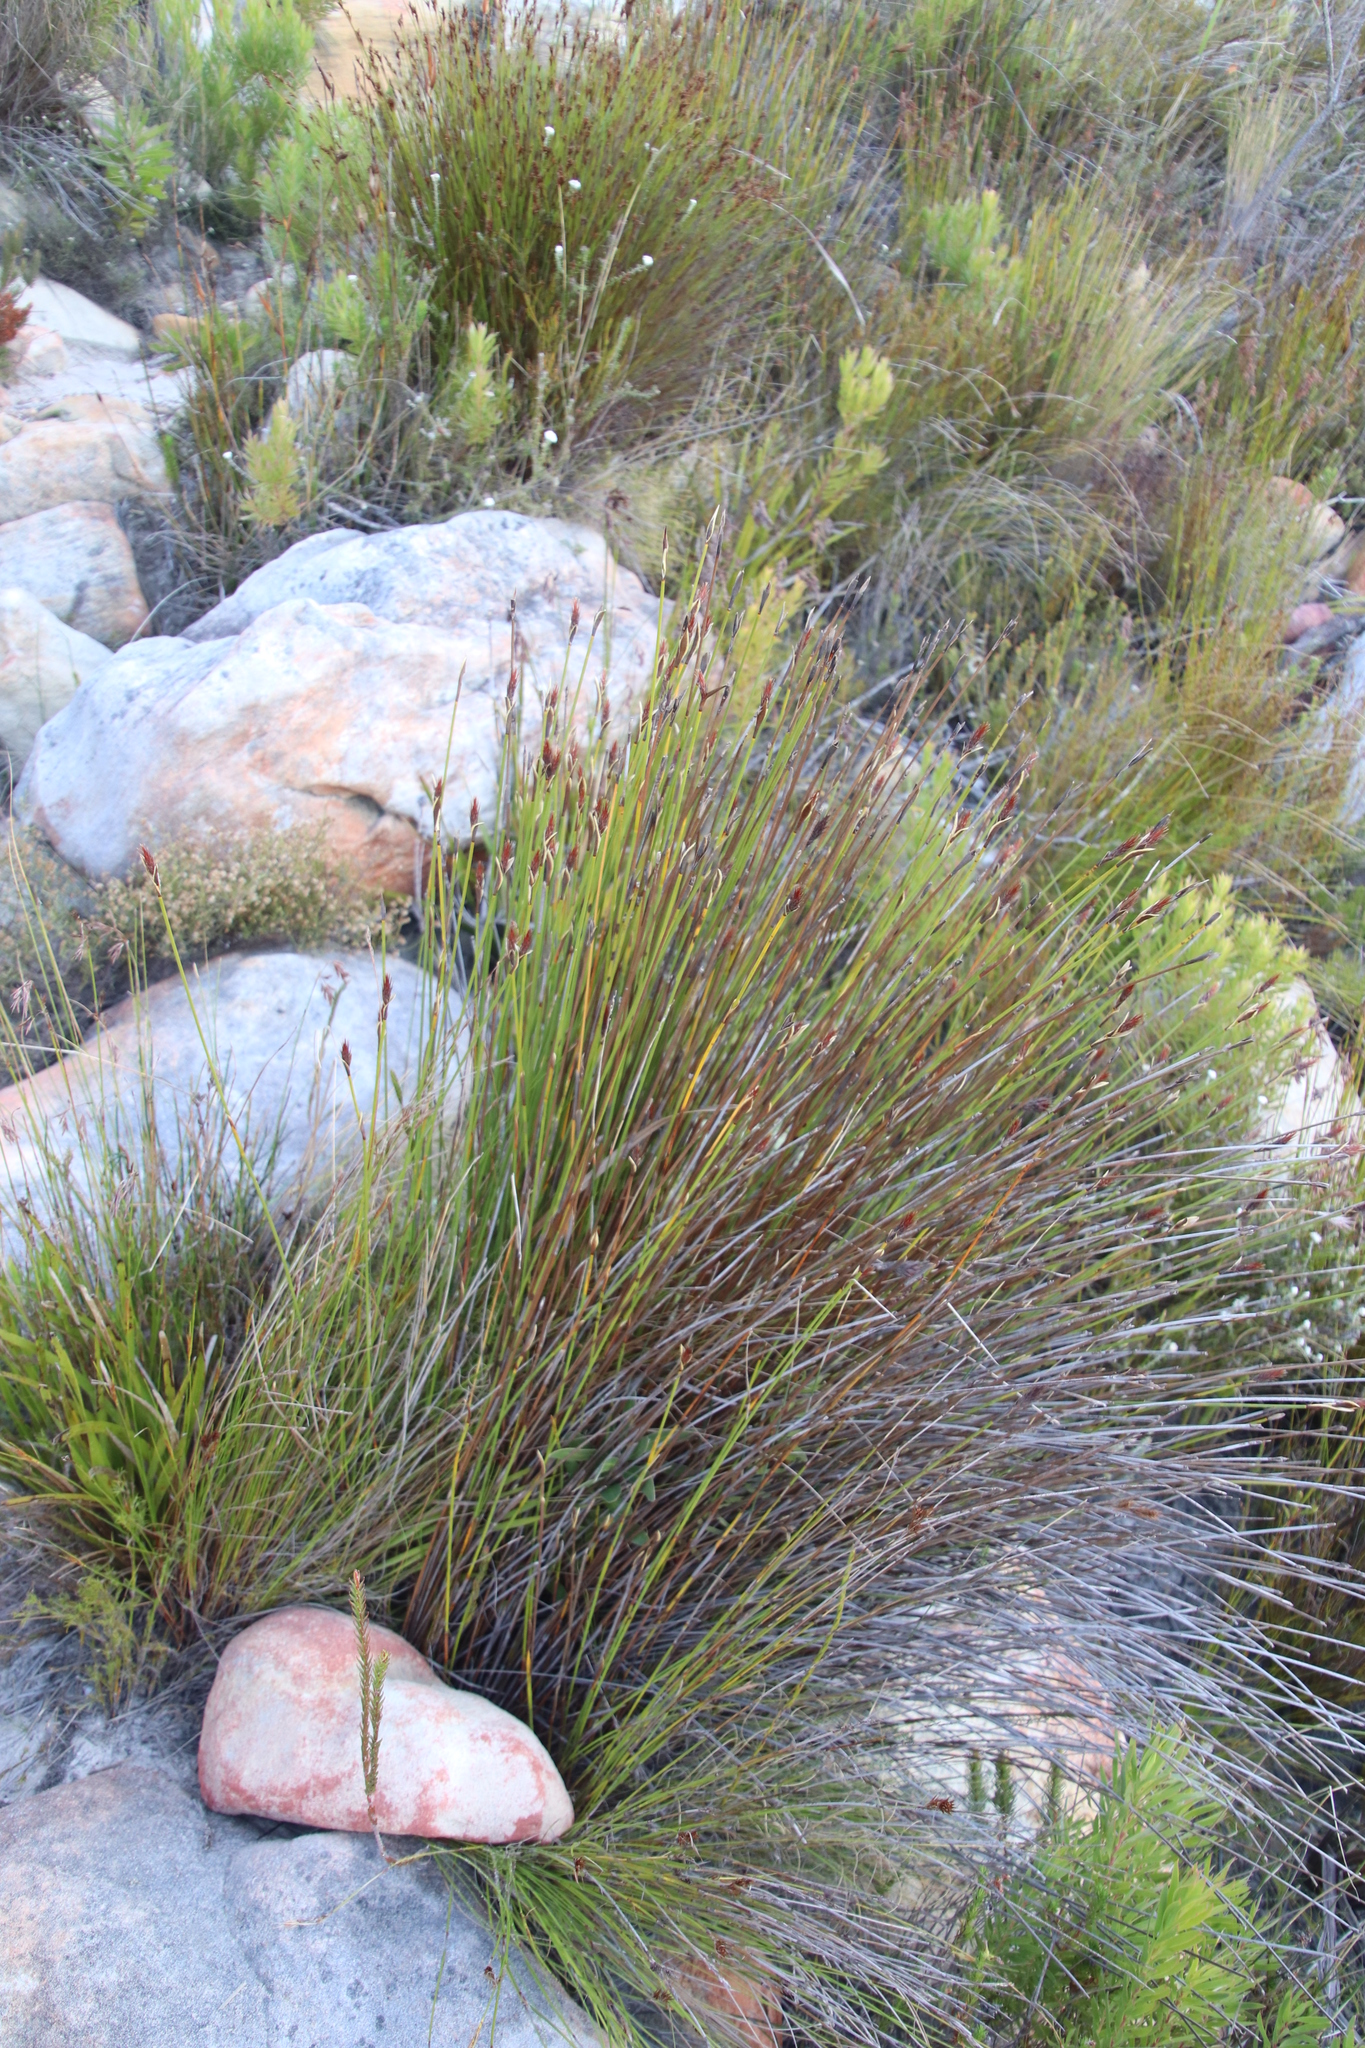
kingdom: Plantae
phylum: Tracheophyta
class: Liliopsida
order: Poales
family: Restionaceae
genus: Hypodiscus
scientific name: Hypodiscus aristatus
